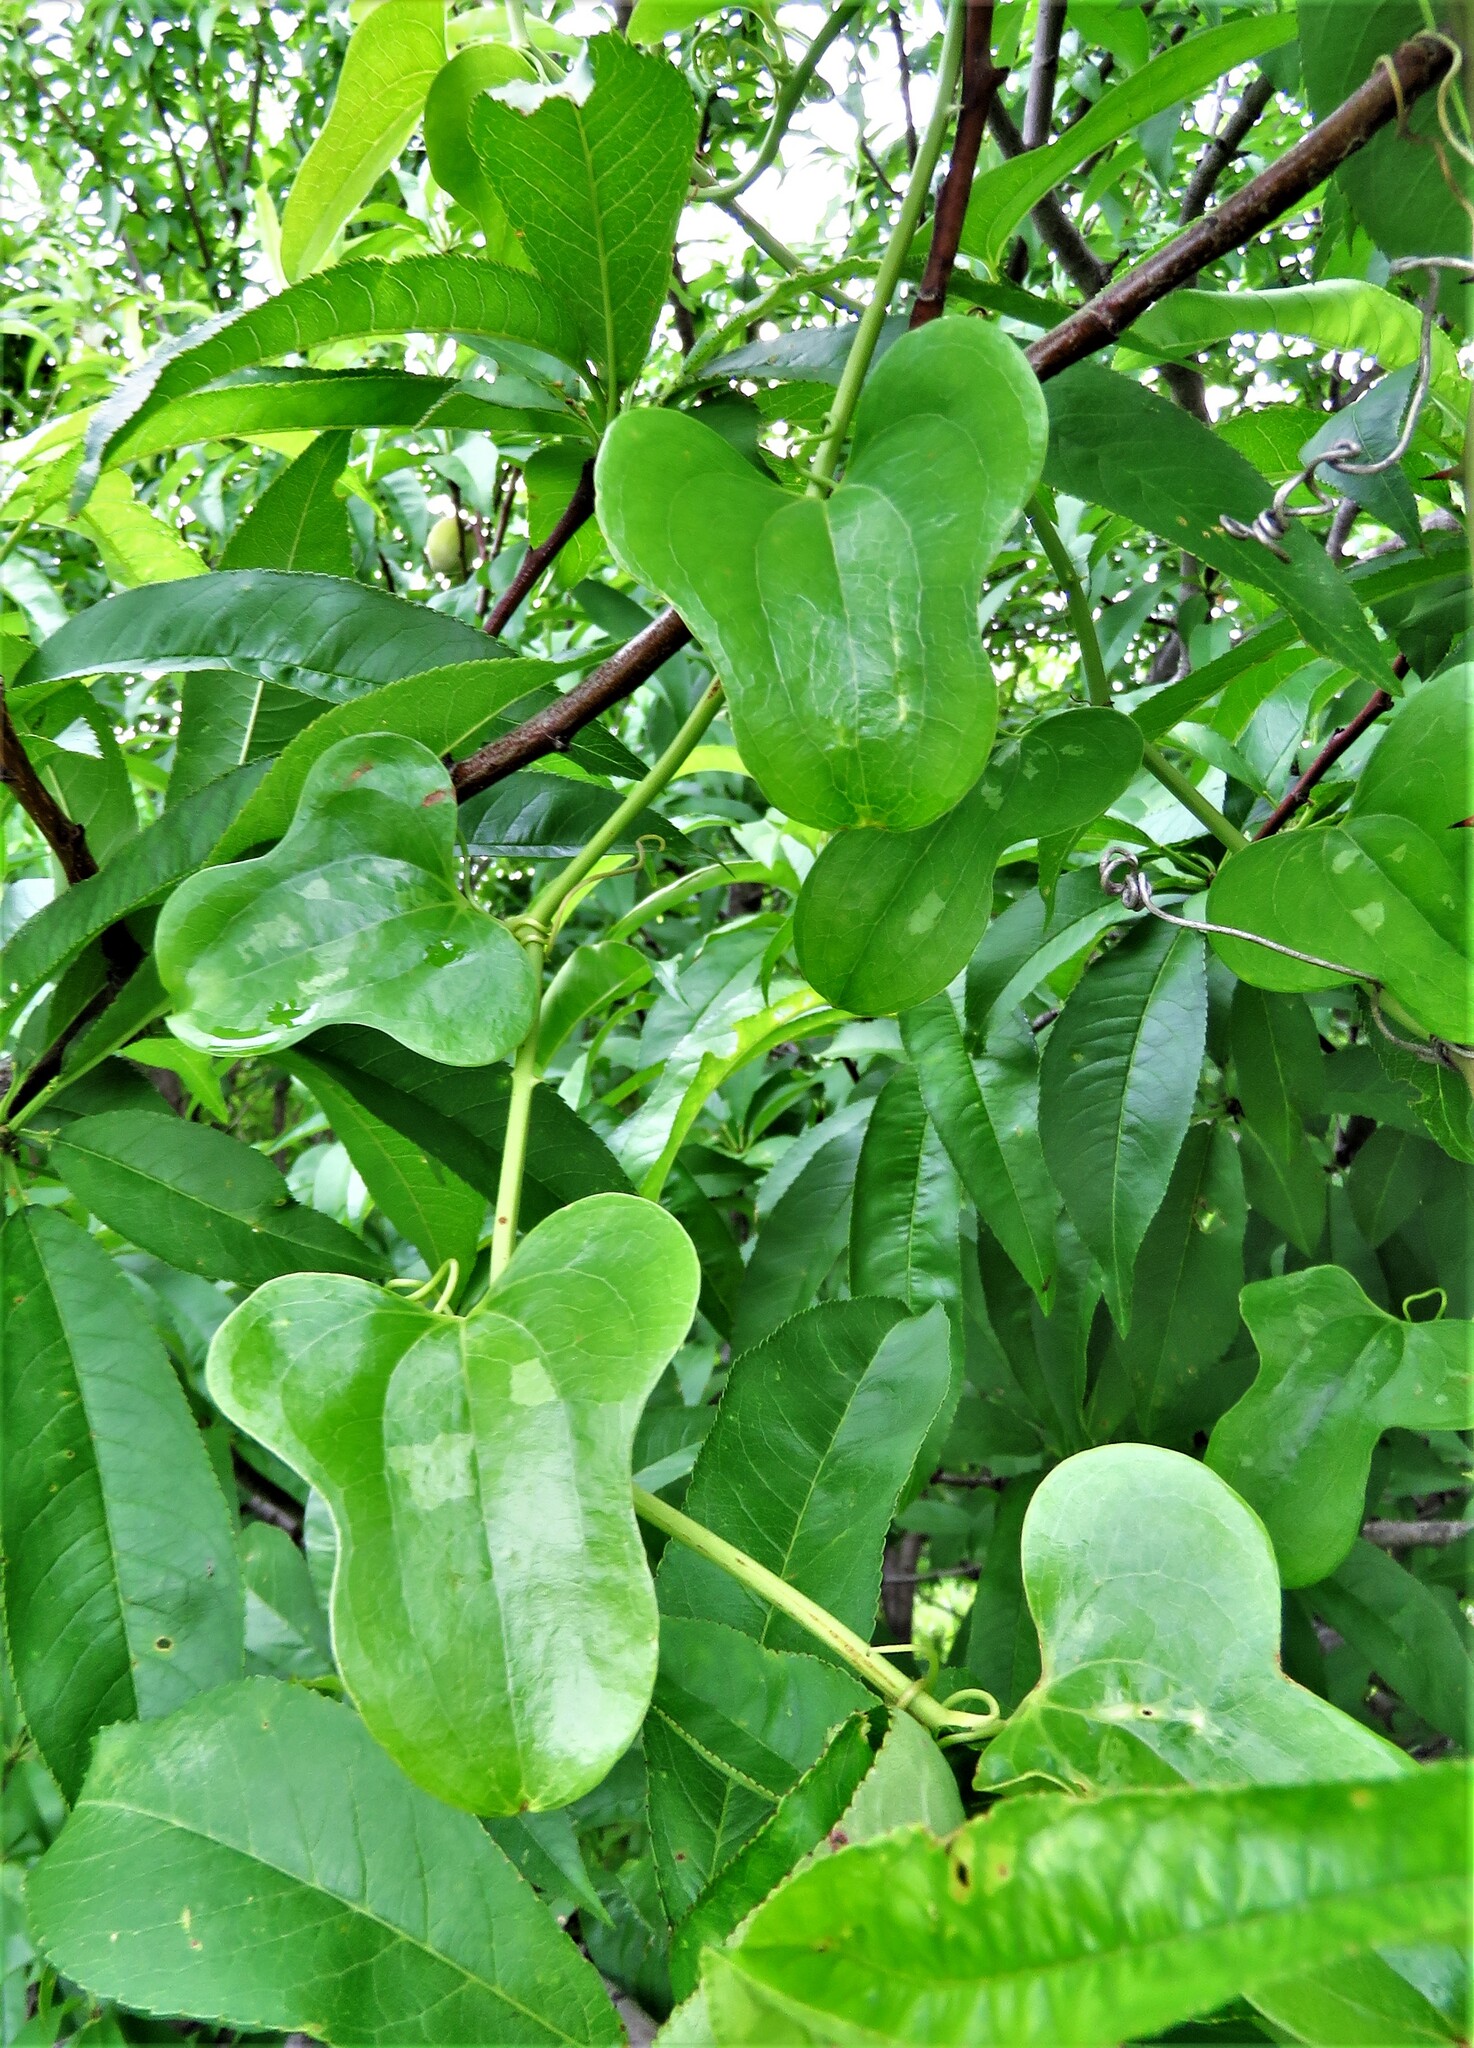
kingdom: Plantae
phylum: Tracheophyta
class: Liliopsida
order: Liliales
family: Smilacaceae
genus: Smilax
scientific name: Smilax bona-nox
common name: Catbrier
